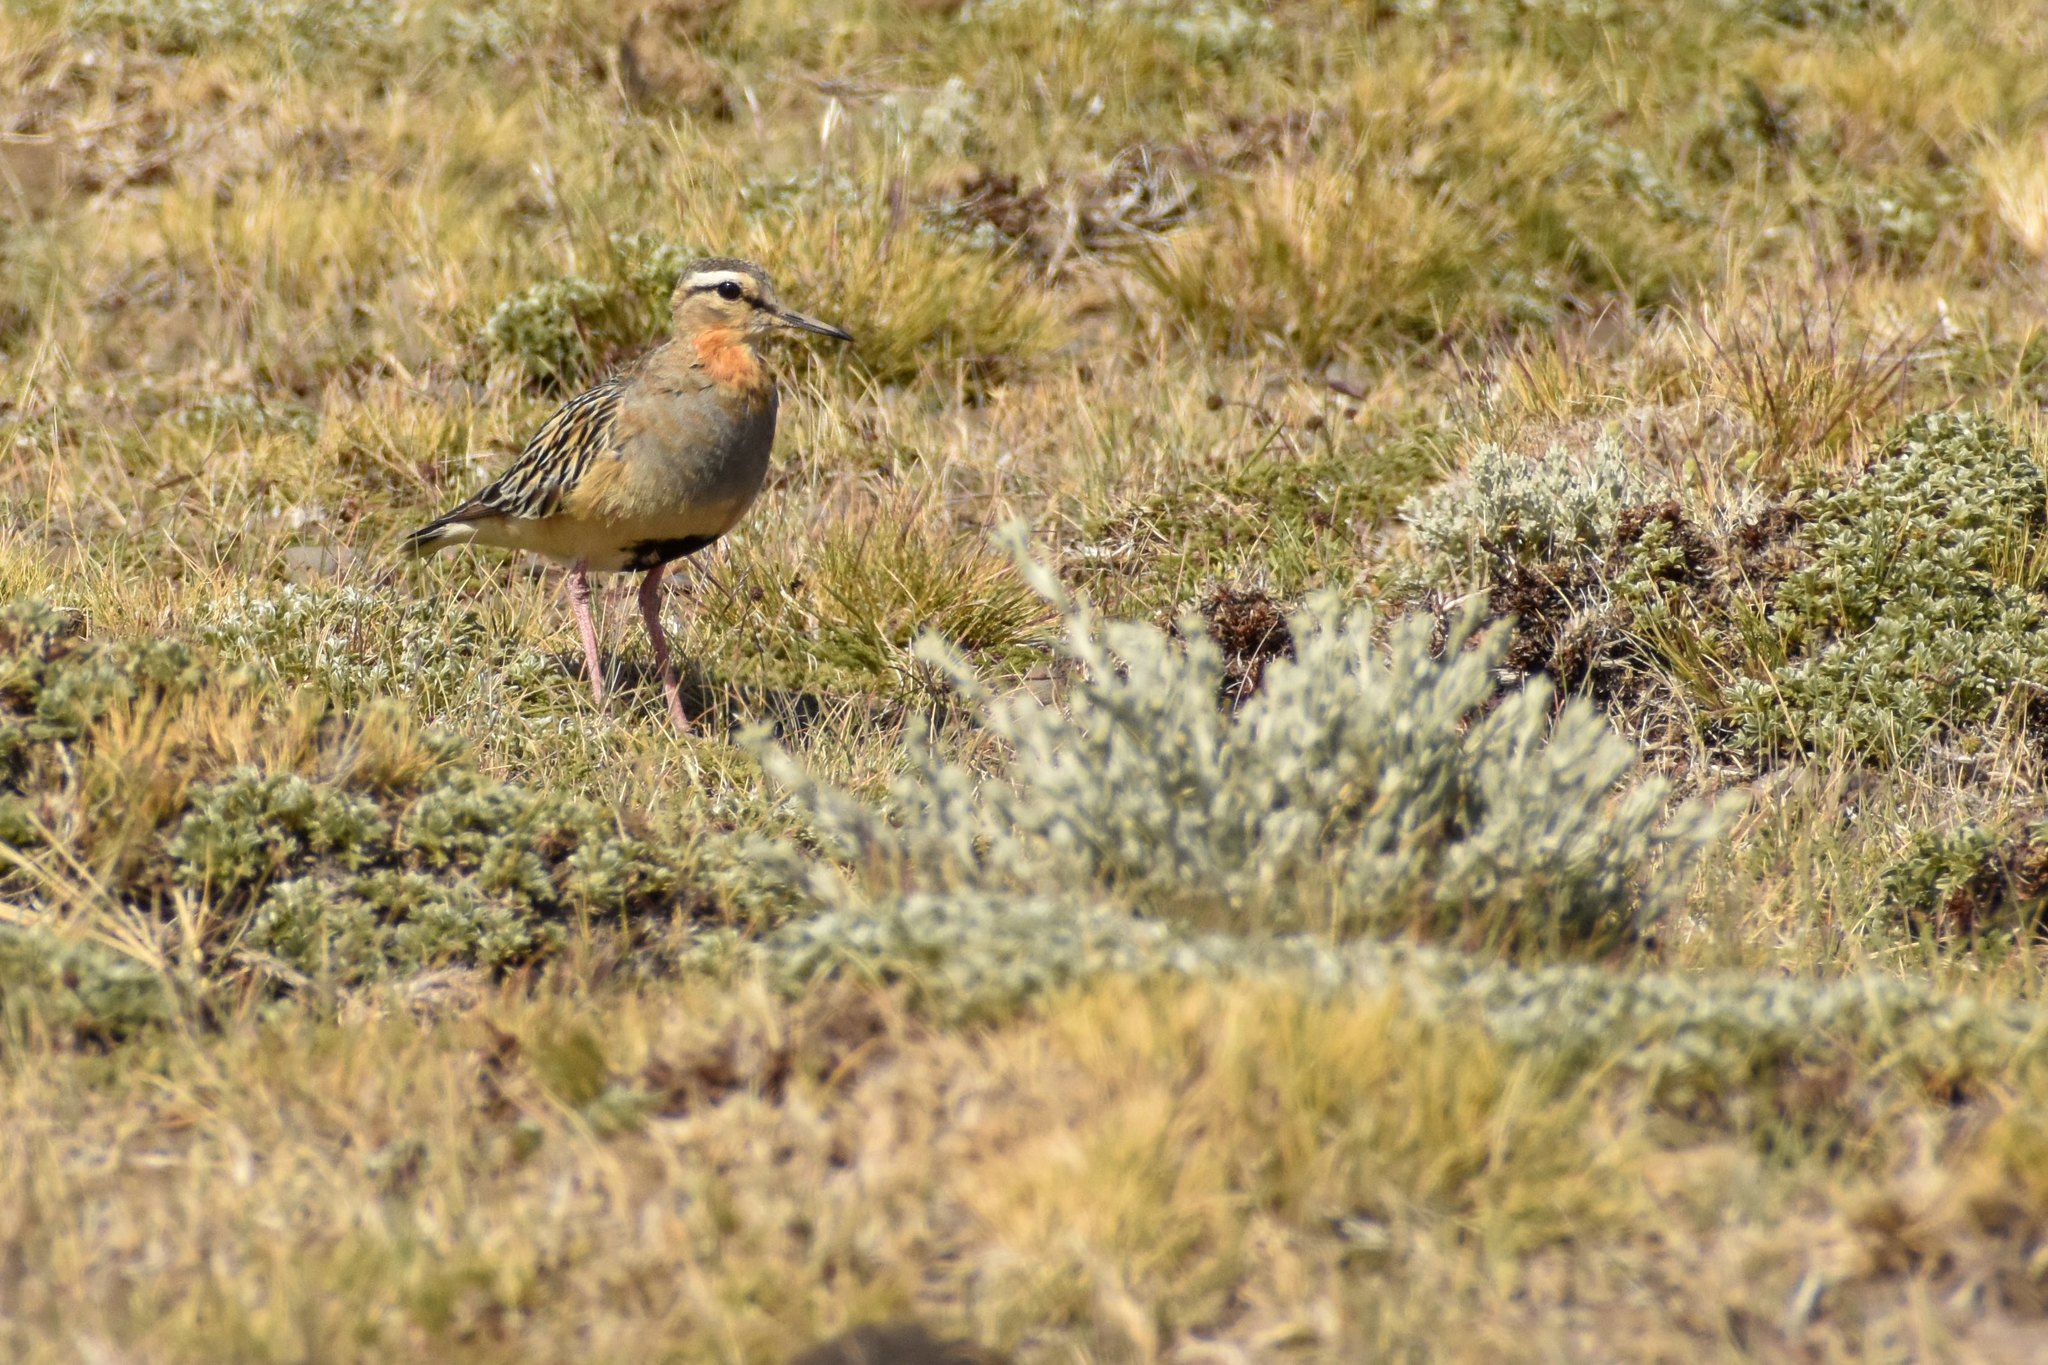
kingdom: Animalia
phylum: Chordata
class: Aves
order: Charadriiformes
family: Charadriidae
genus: Oreopholus
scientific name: Oreopholus ruficollis
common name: Tawny-throated dotterel
